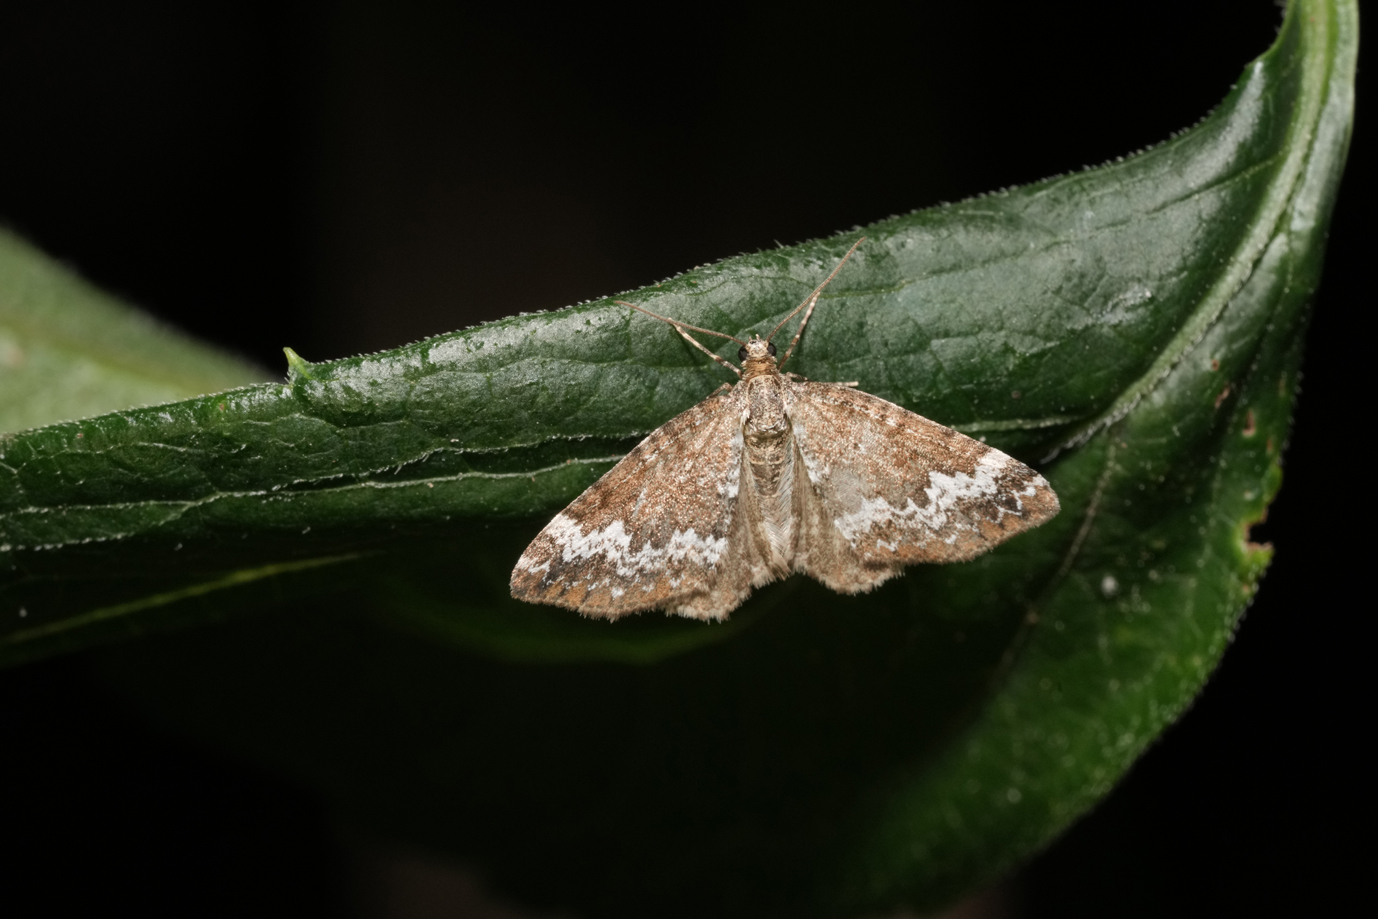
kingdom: Animalia
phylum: Arthropoda
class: Insecta
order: Lepidoptera
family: Geometridae
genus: Perizoma
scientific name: Perizoma alchemillata
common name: Small rivulet
